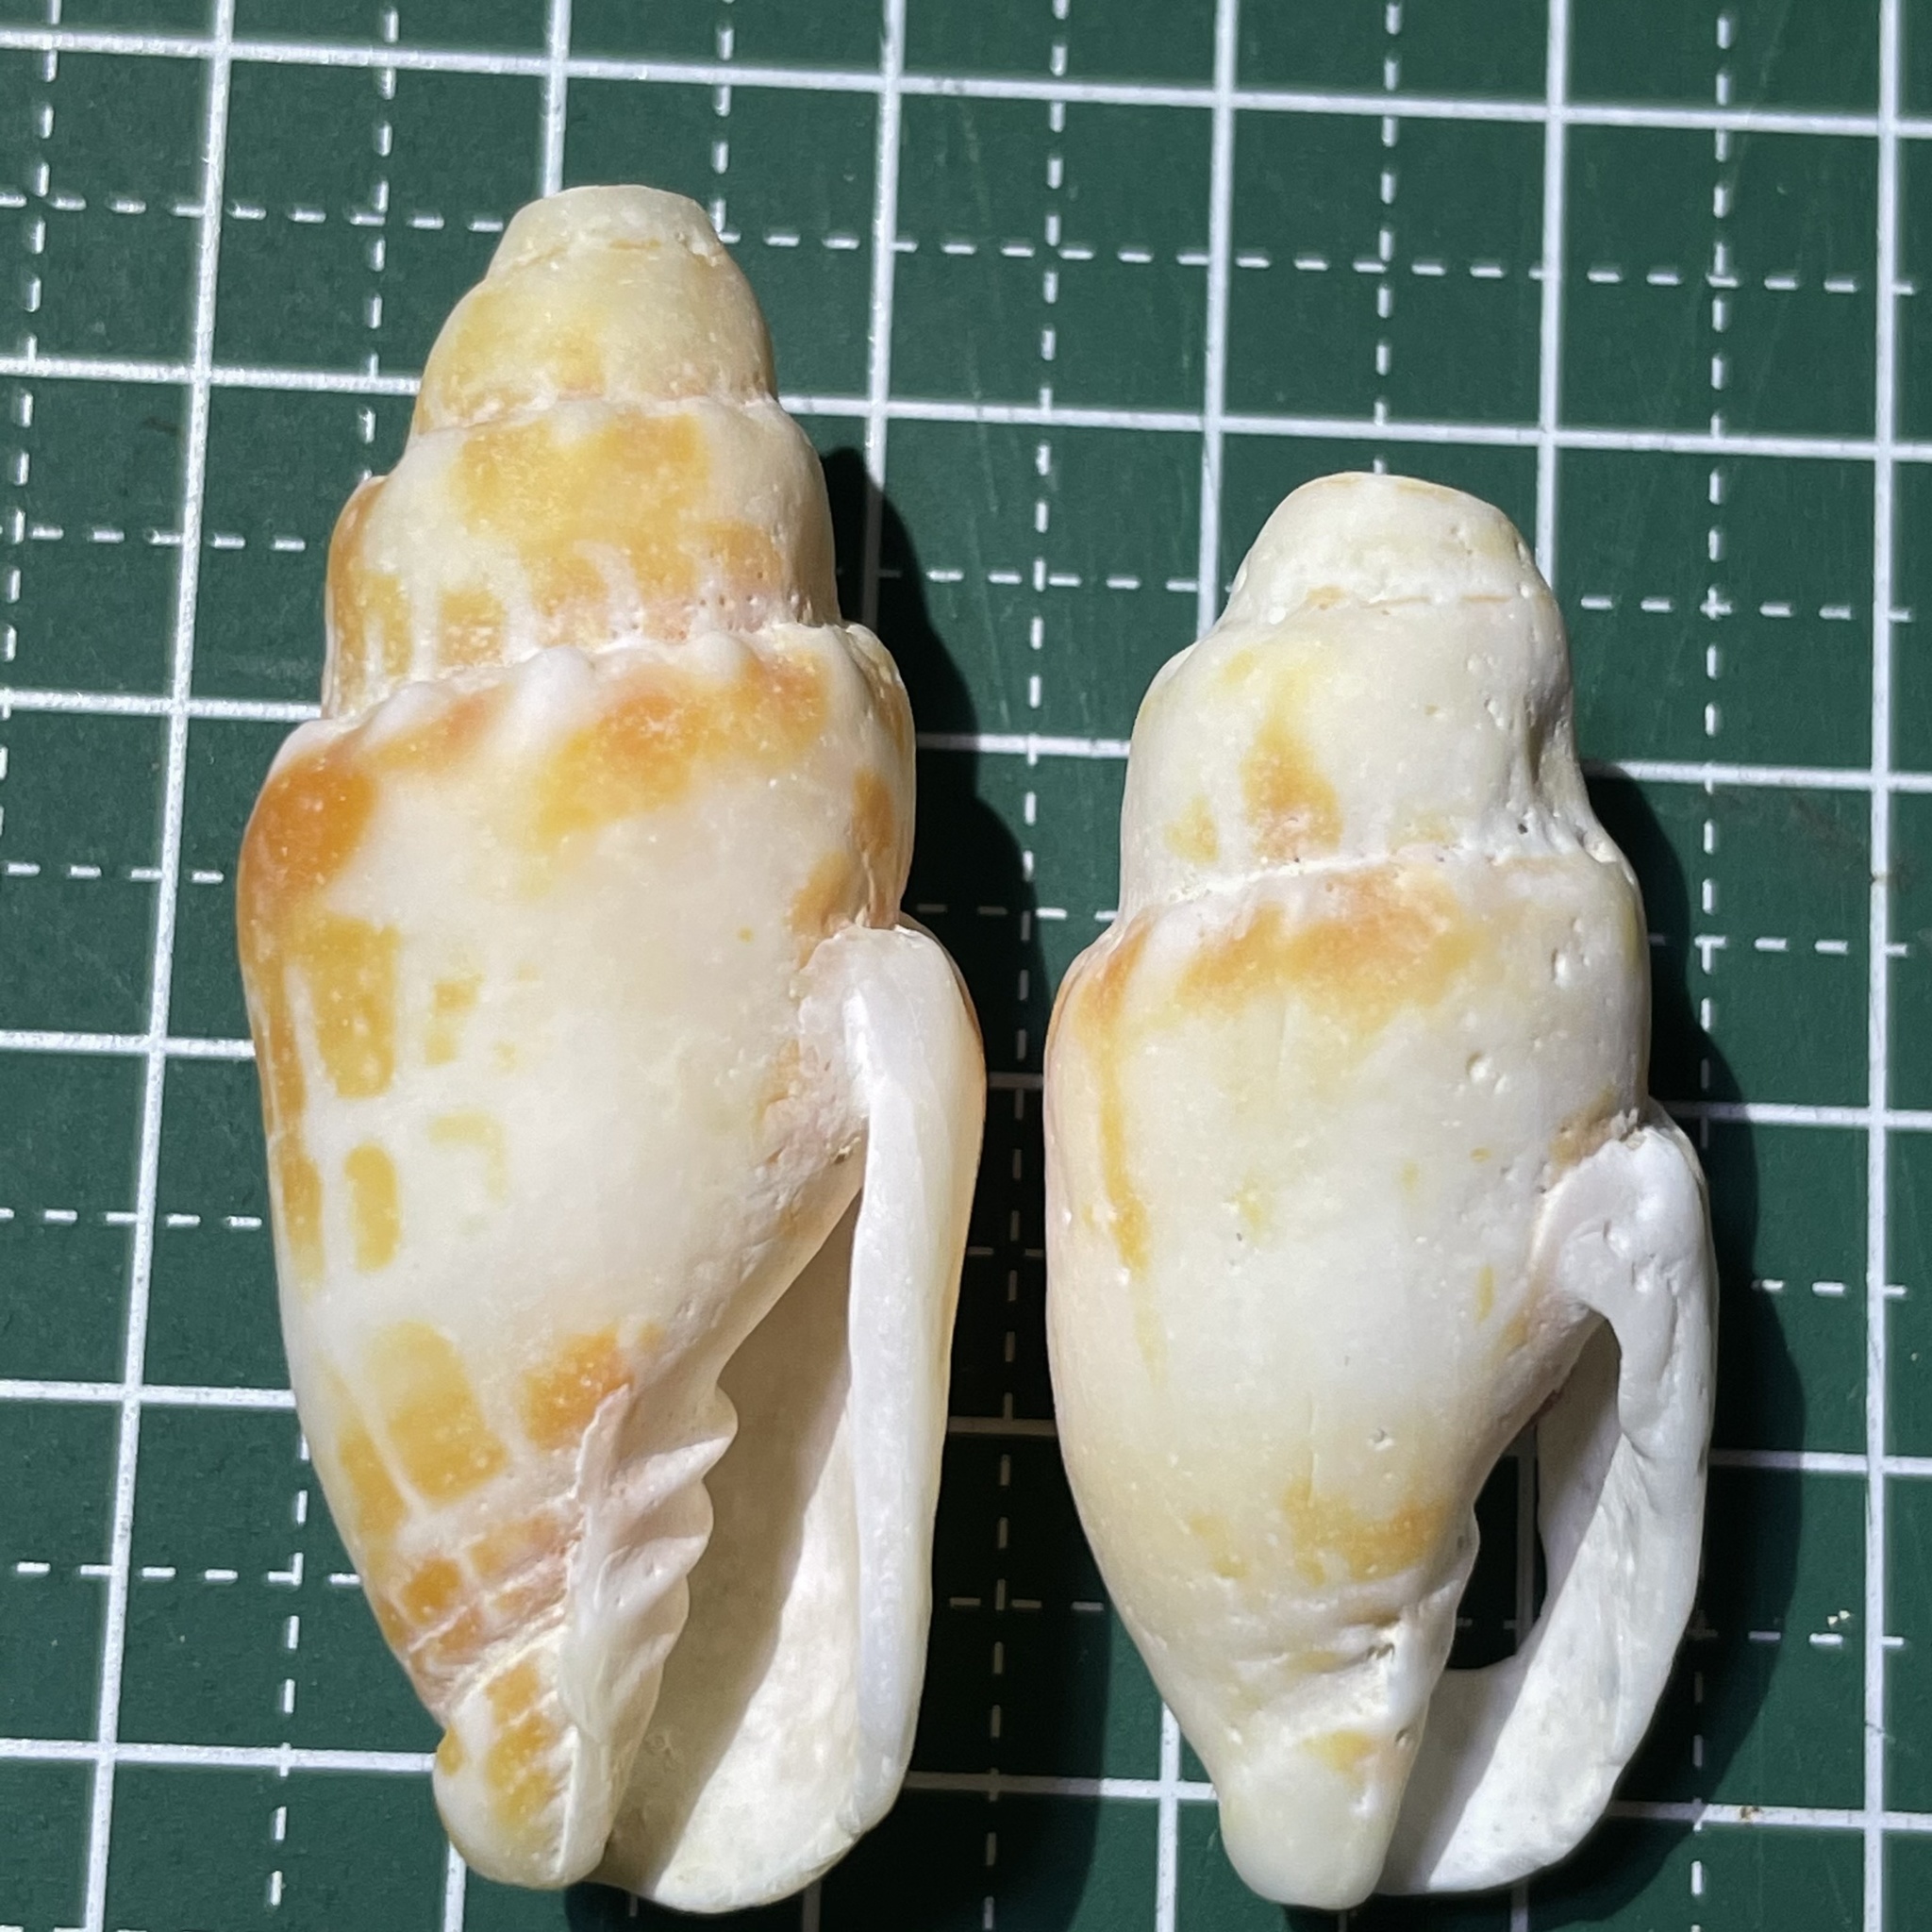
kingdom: Animalia
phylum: Mollusca
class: Gastropoda
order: Neogastropoda
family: Mitridae
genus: Mitra
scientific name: Mitra stictica
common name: Pontifical miter
